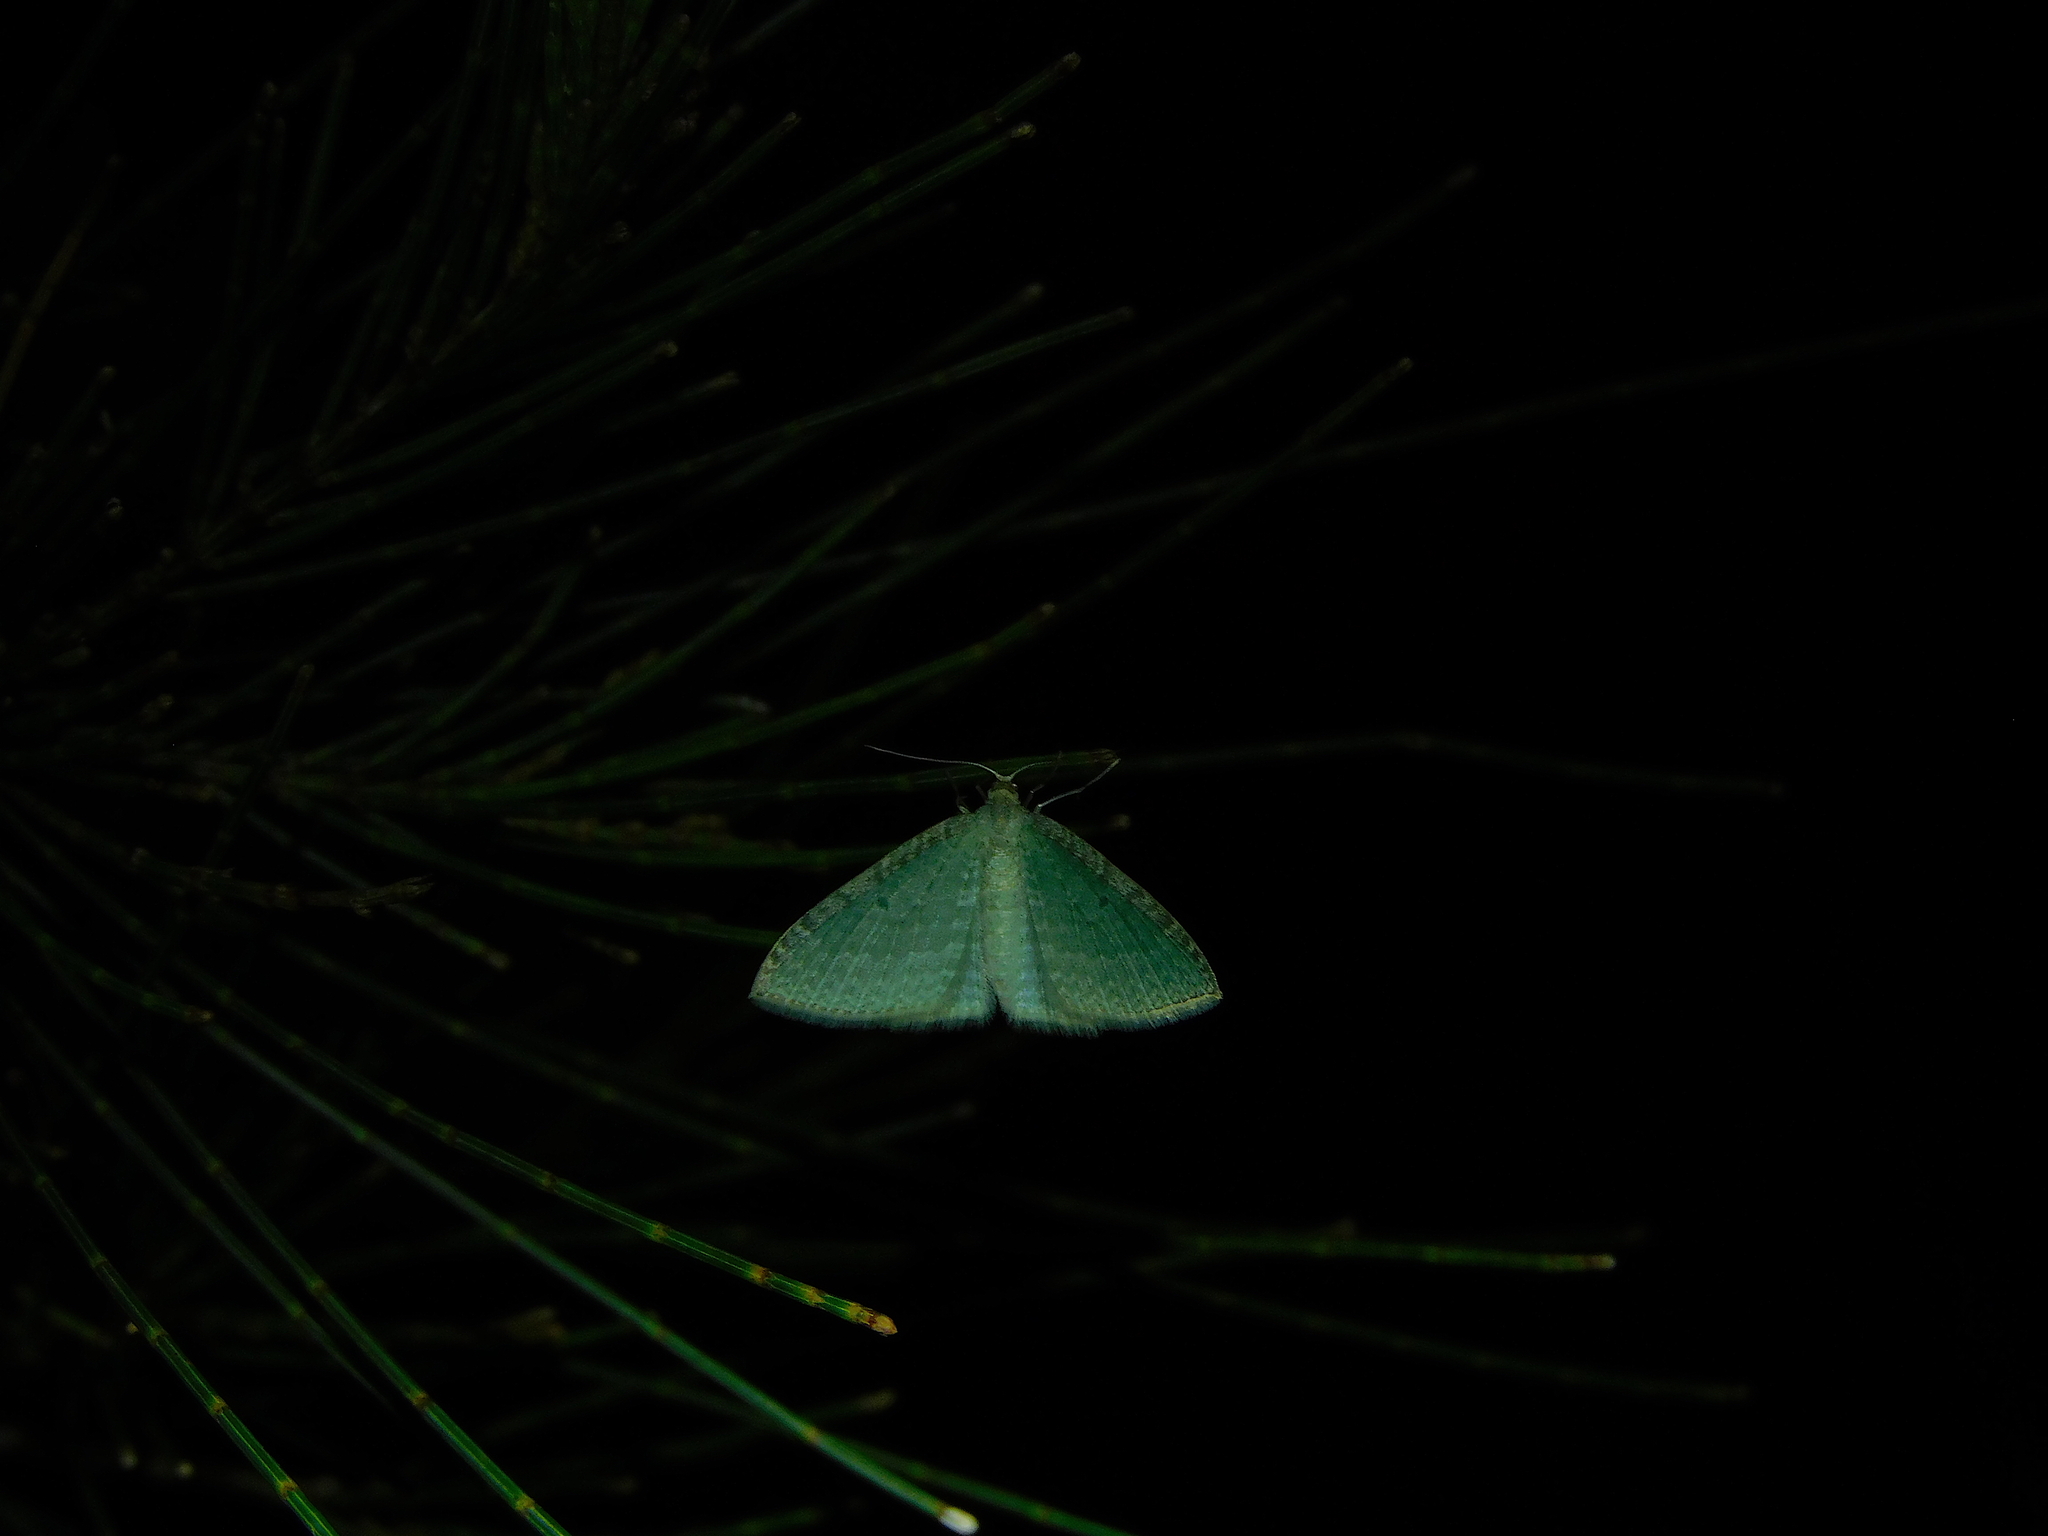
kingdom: Animalia
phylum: Arthropoda
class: Insecta
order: Lepidoptera
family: Geometridae
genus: Poecilasthena
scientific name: Poecilasthena pulchraria
